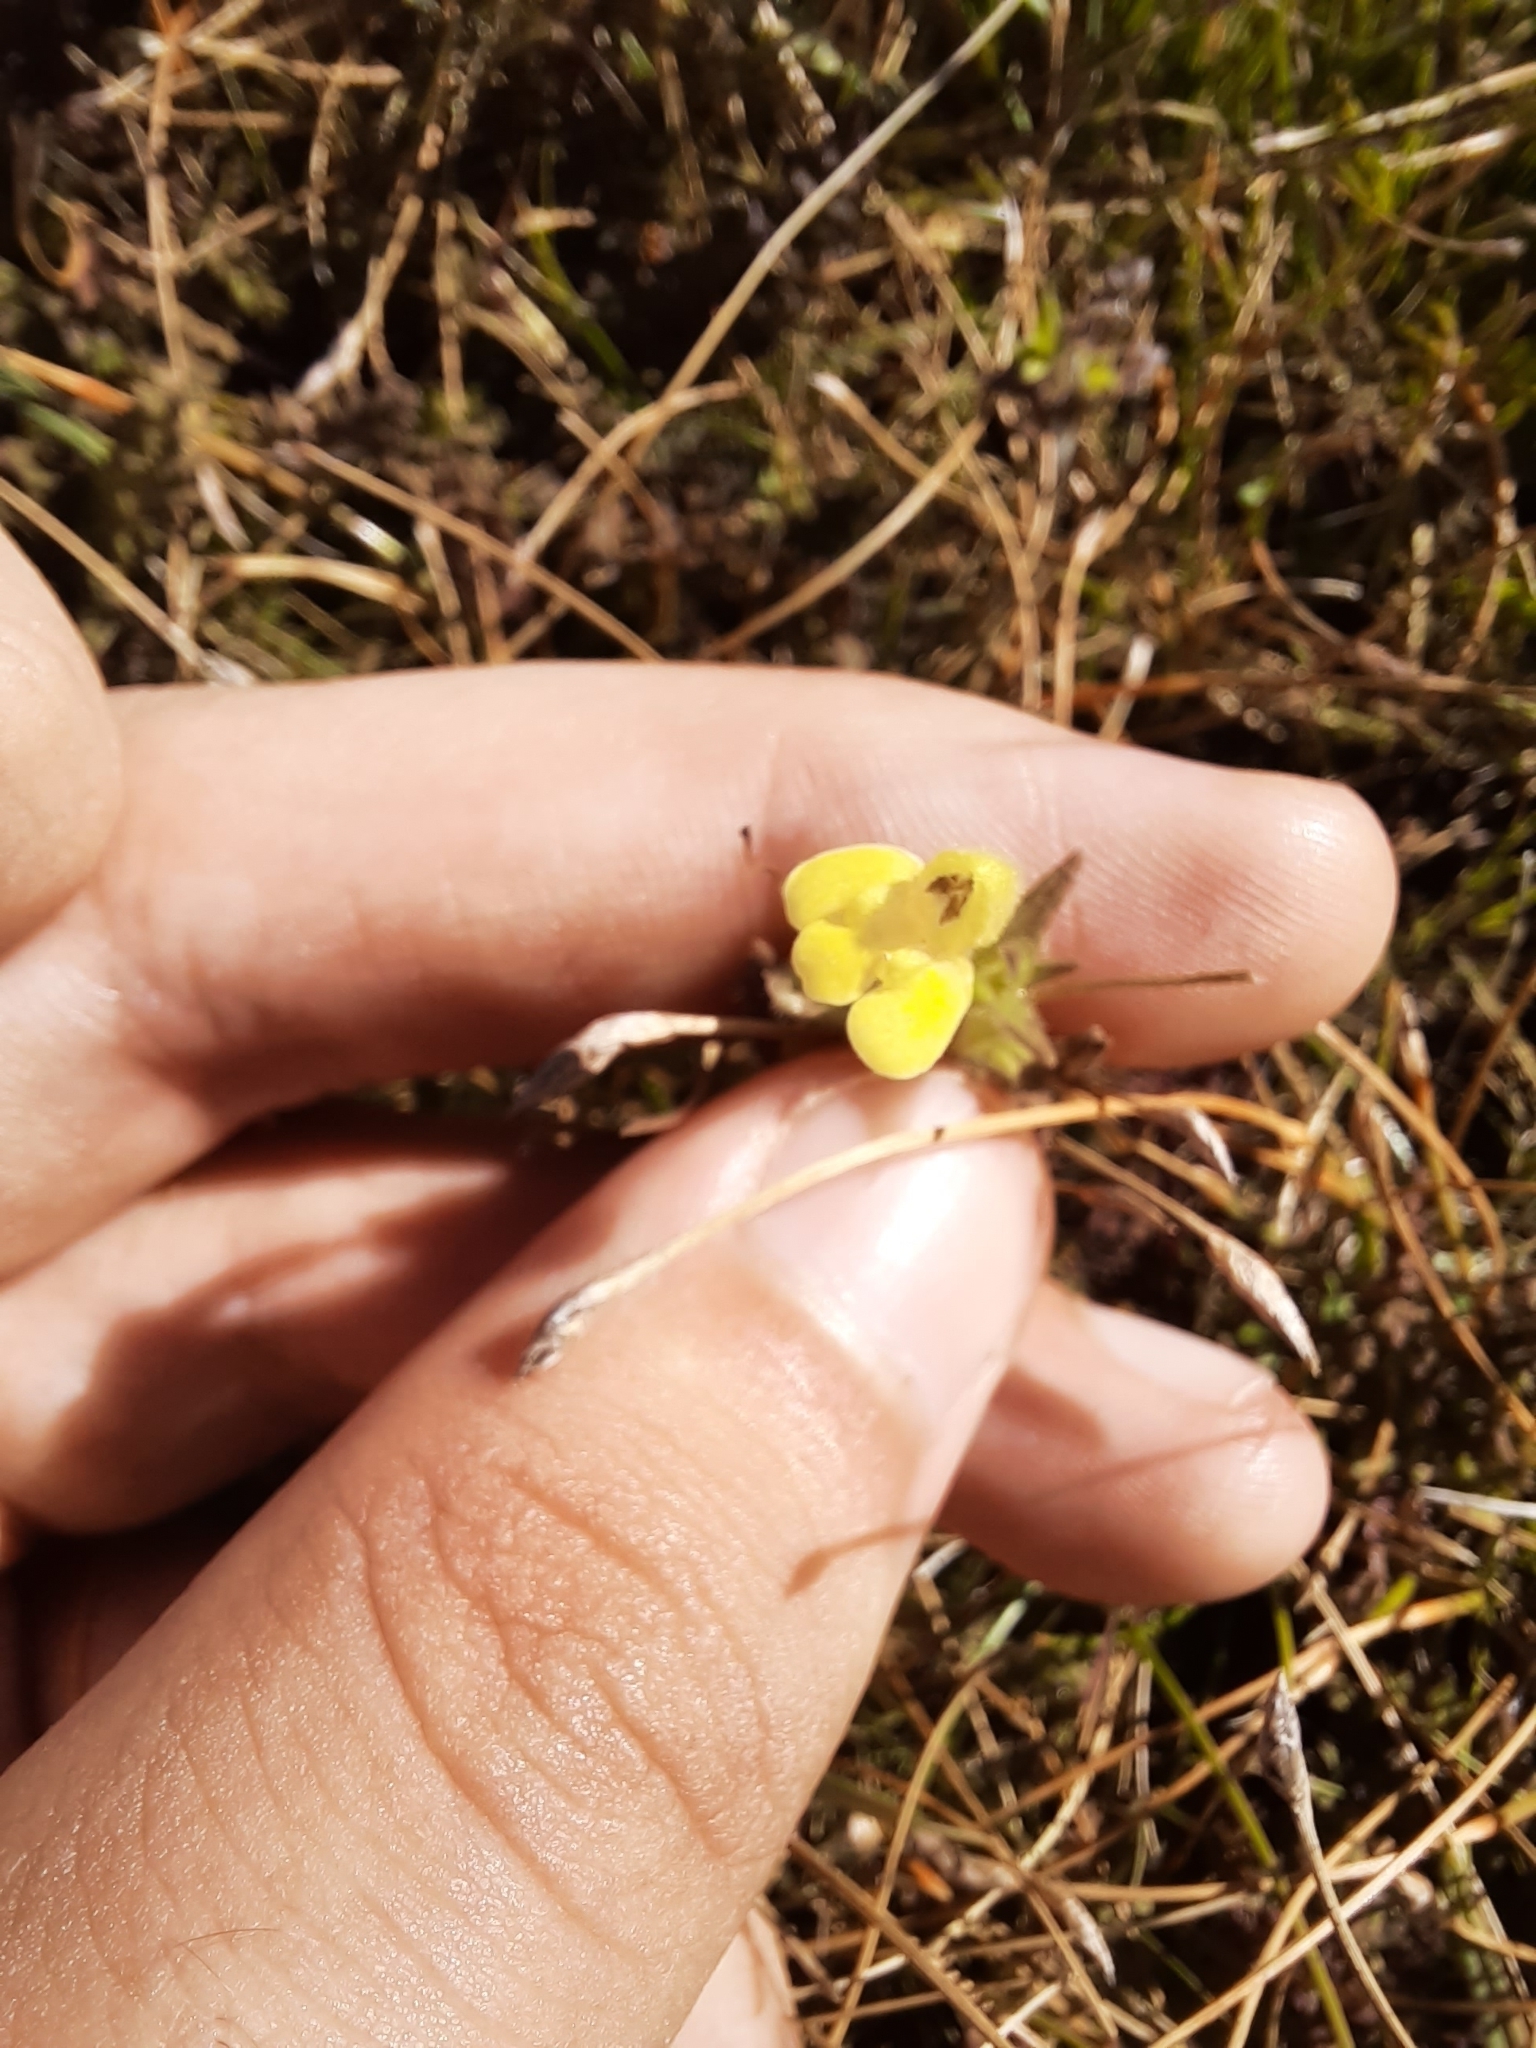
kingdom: Plantae
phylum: Tracheophyta
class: Magnoliopsida
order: Lamiales
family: Orobanchaceae
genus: Bellardia
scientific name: Bellardia viscosa
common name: Sticky parentucellia
